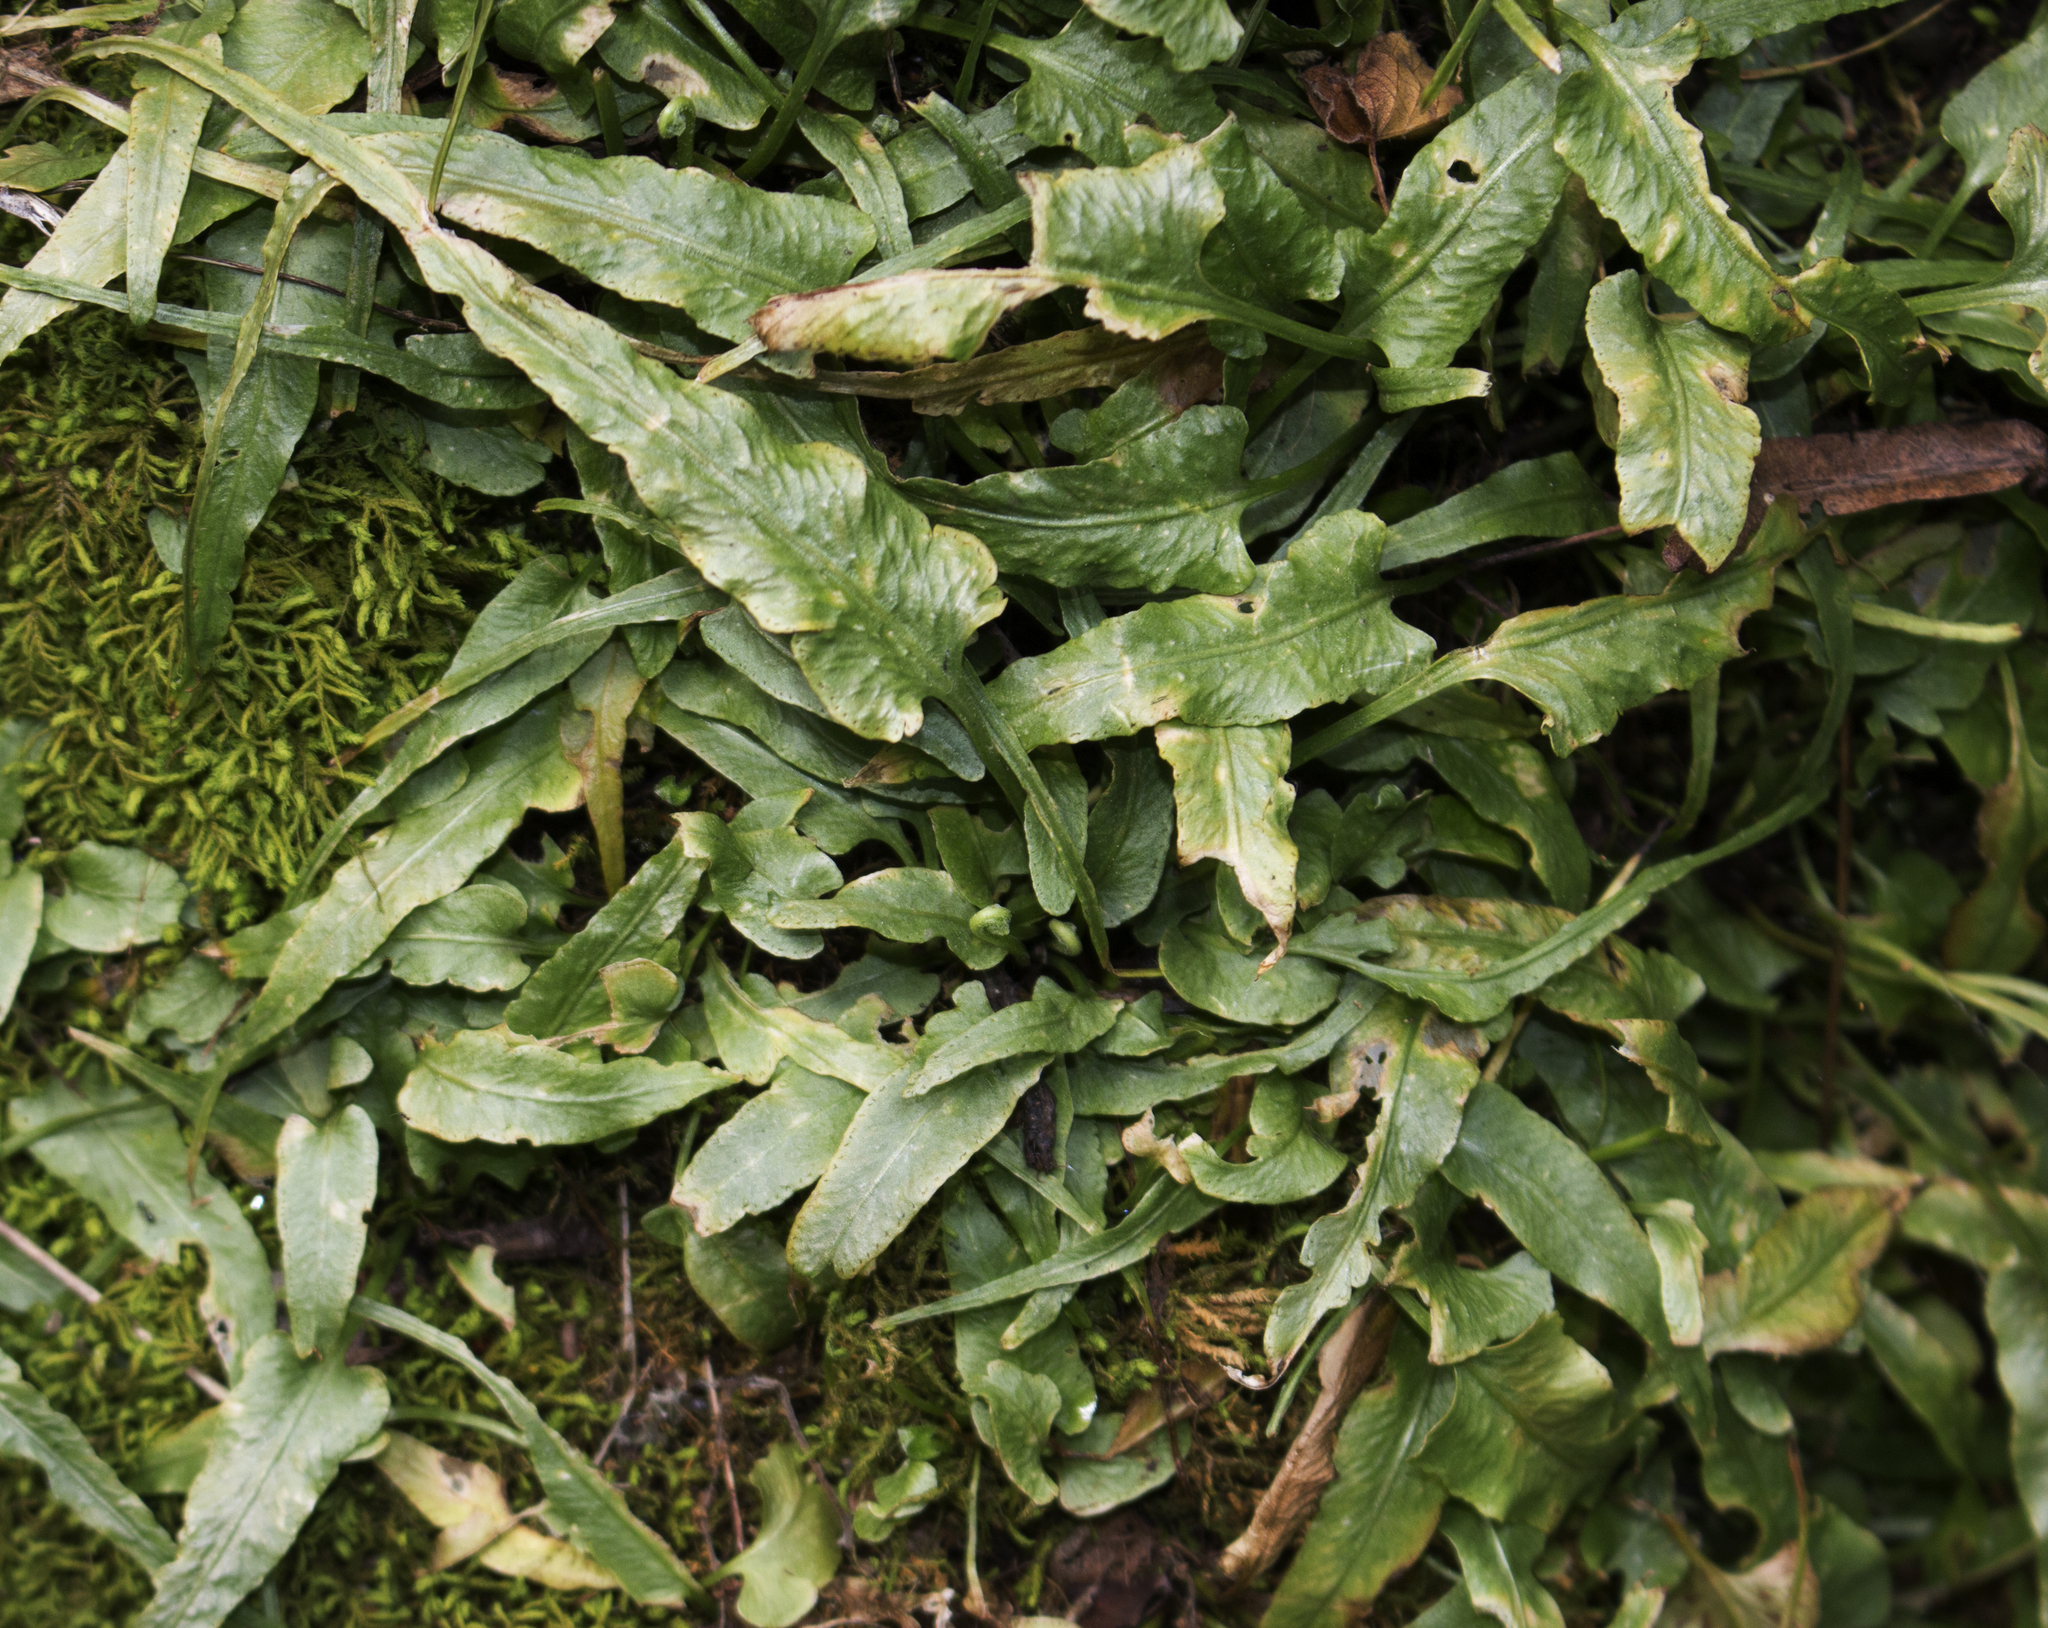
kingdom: Plantae
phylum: Tracheophyta
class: Polypodiopsida
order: Polypodiales
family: Aspleniaceae
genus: Asplenium
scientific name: Asplenium rhizophyllum
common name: Walking fern
